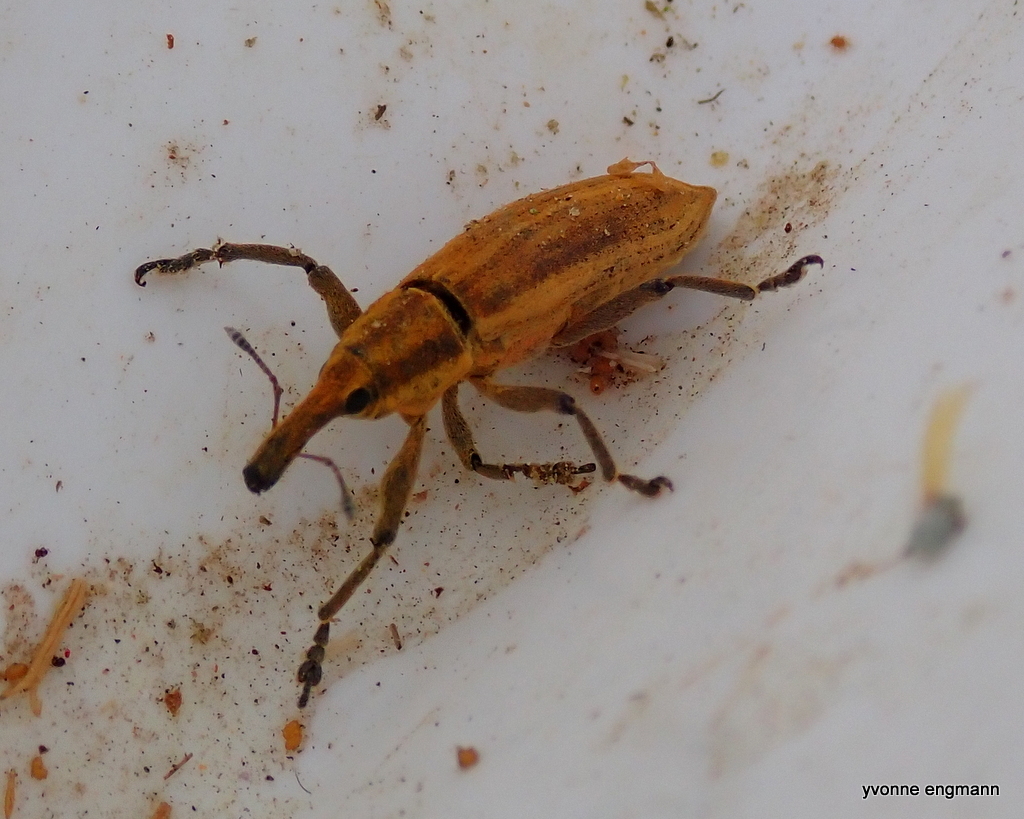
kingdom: Animalia
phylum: Arthropoda
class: Insecta
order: Coleoptera
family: Curculionidae
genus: Lixus
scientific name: Lixus iridis
